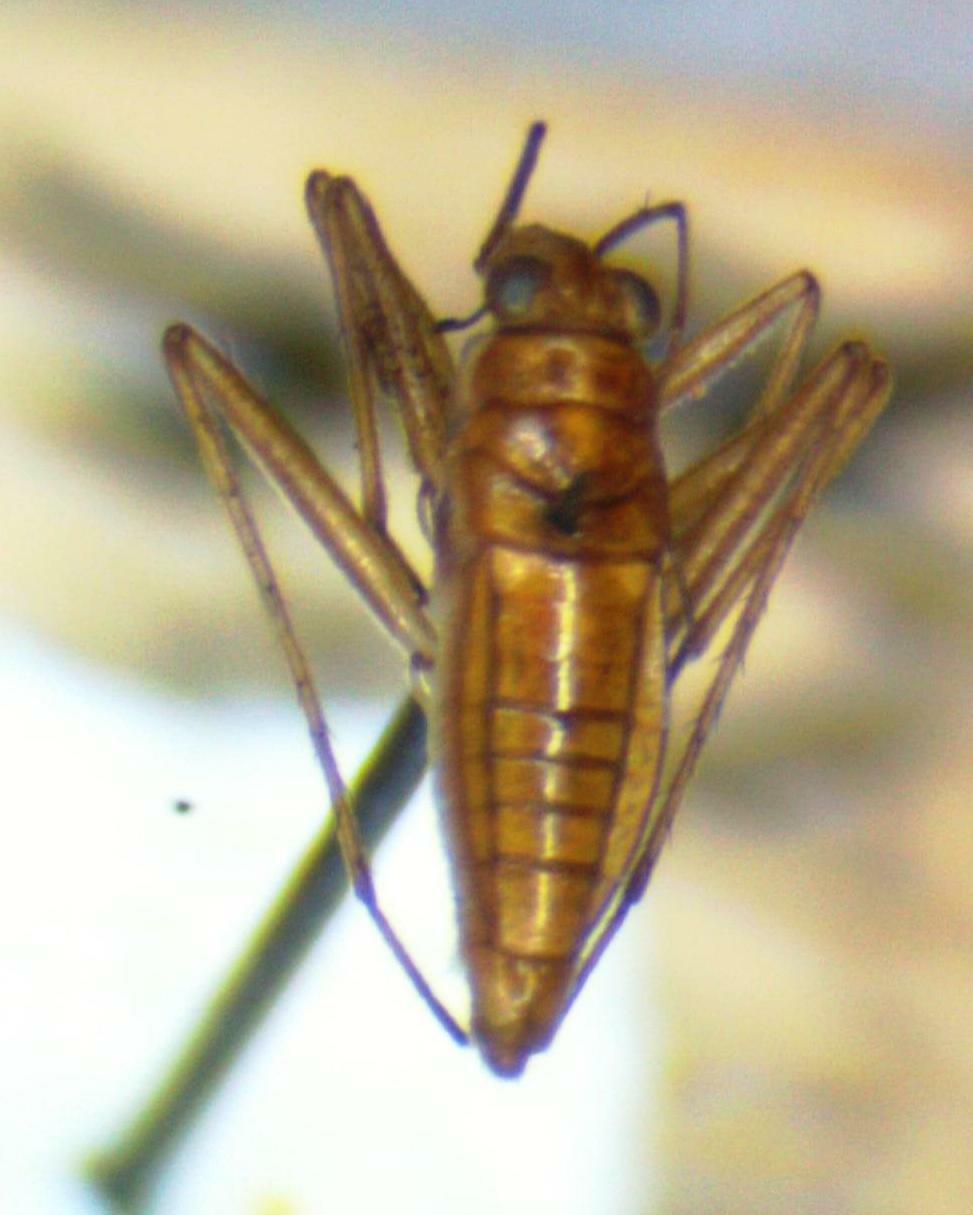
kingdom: Animalia
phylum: Arthropoda
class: Insecta
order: Hemiptera
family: Mesoveliidae
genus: Mesovelia
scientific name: Mesovelia vittigera
